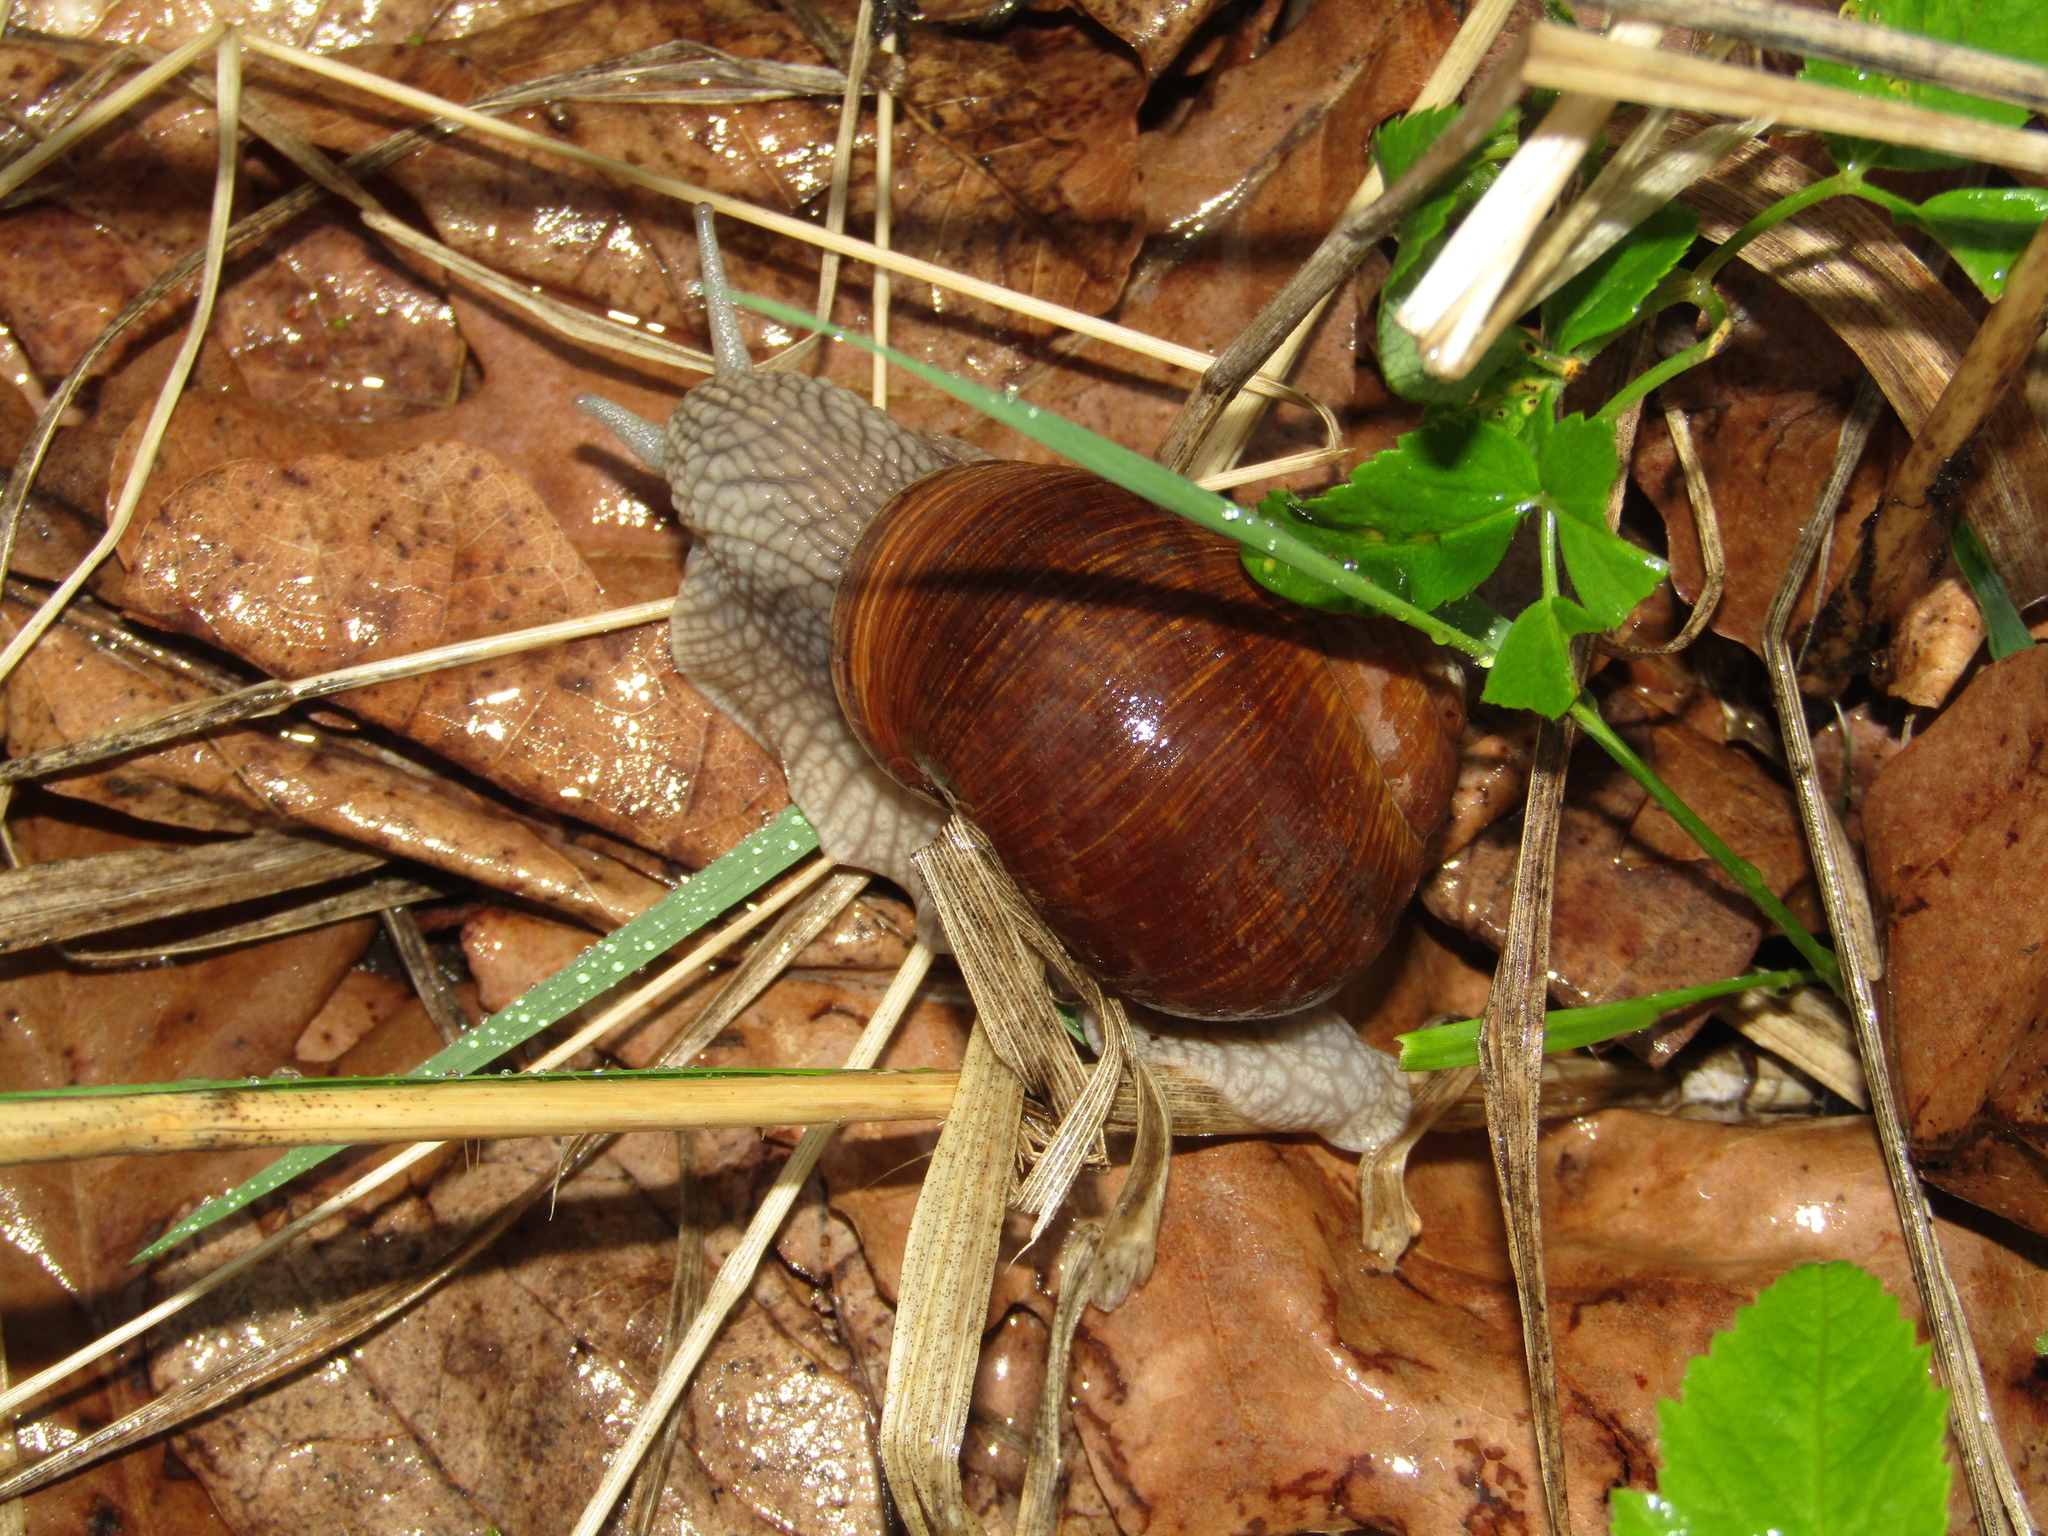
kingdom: Animalia
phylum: Mollusca
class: Gastropoda
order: Stylommatophora
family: Helicidae
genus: Helix
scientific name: Helix pomatia
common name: Roman snail
